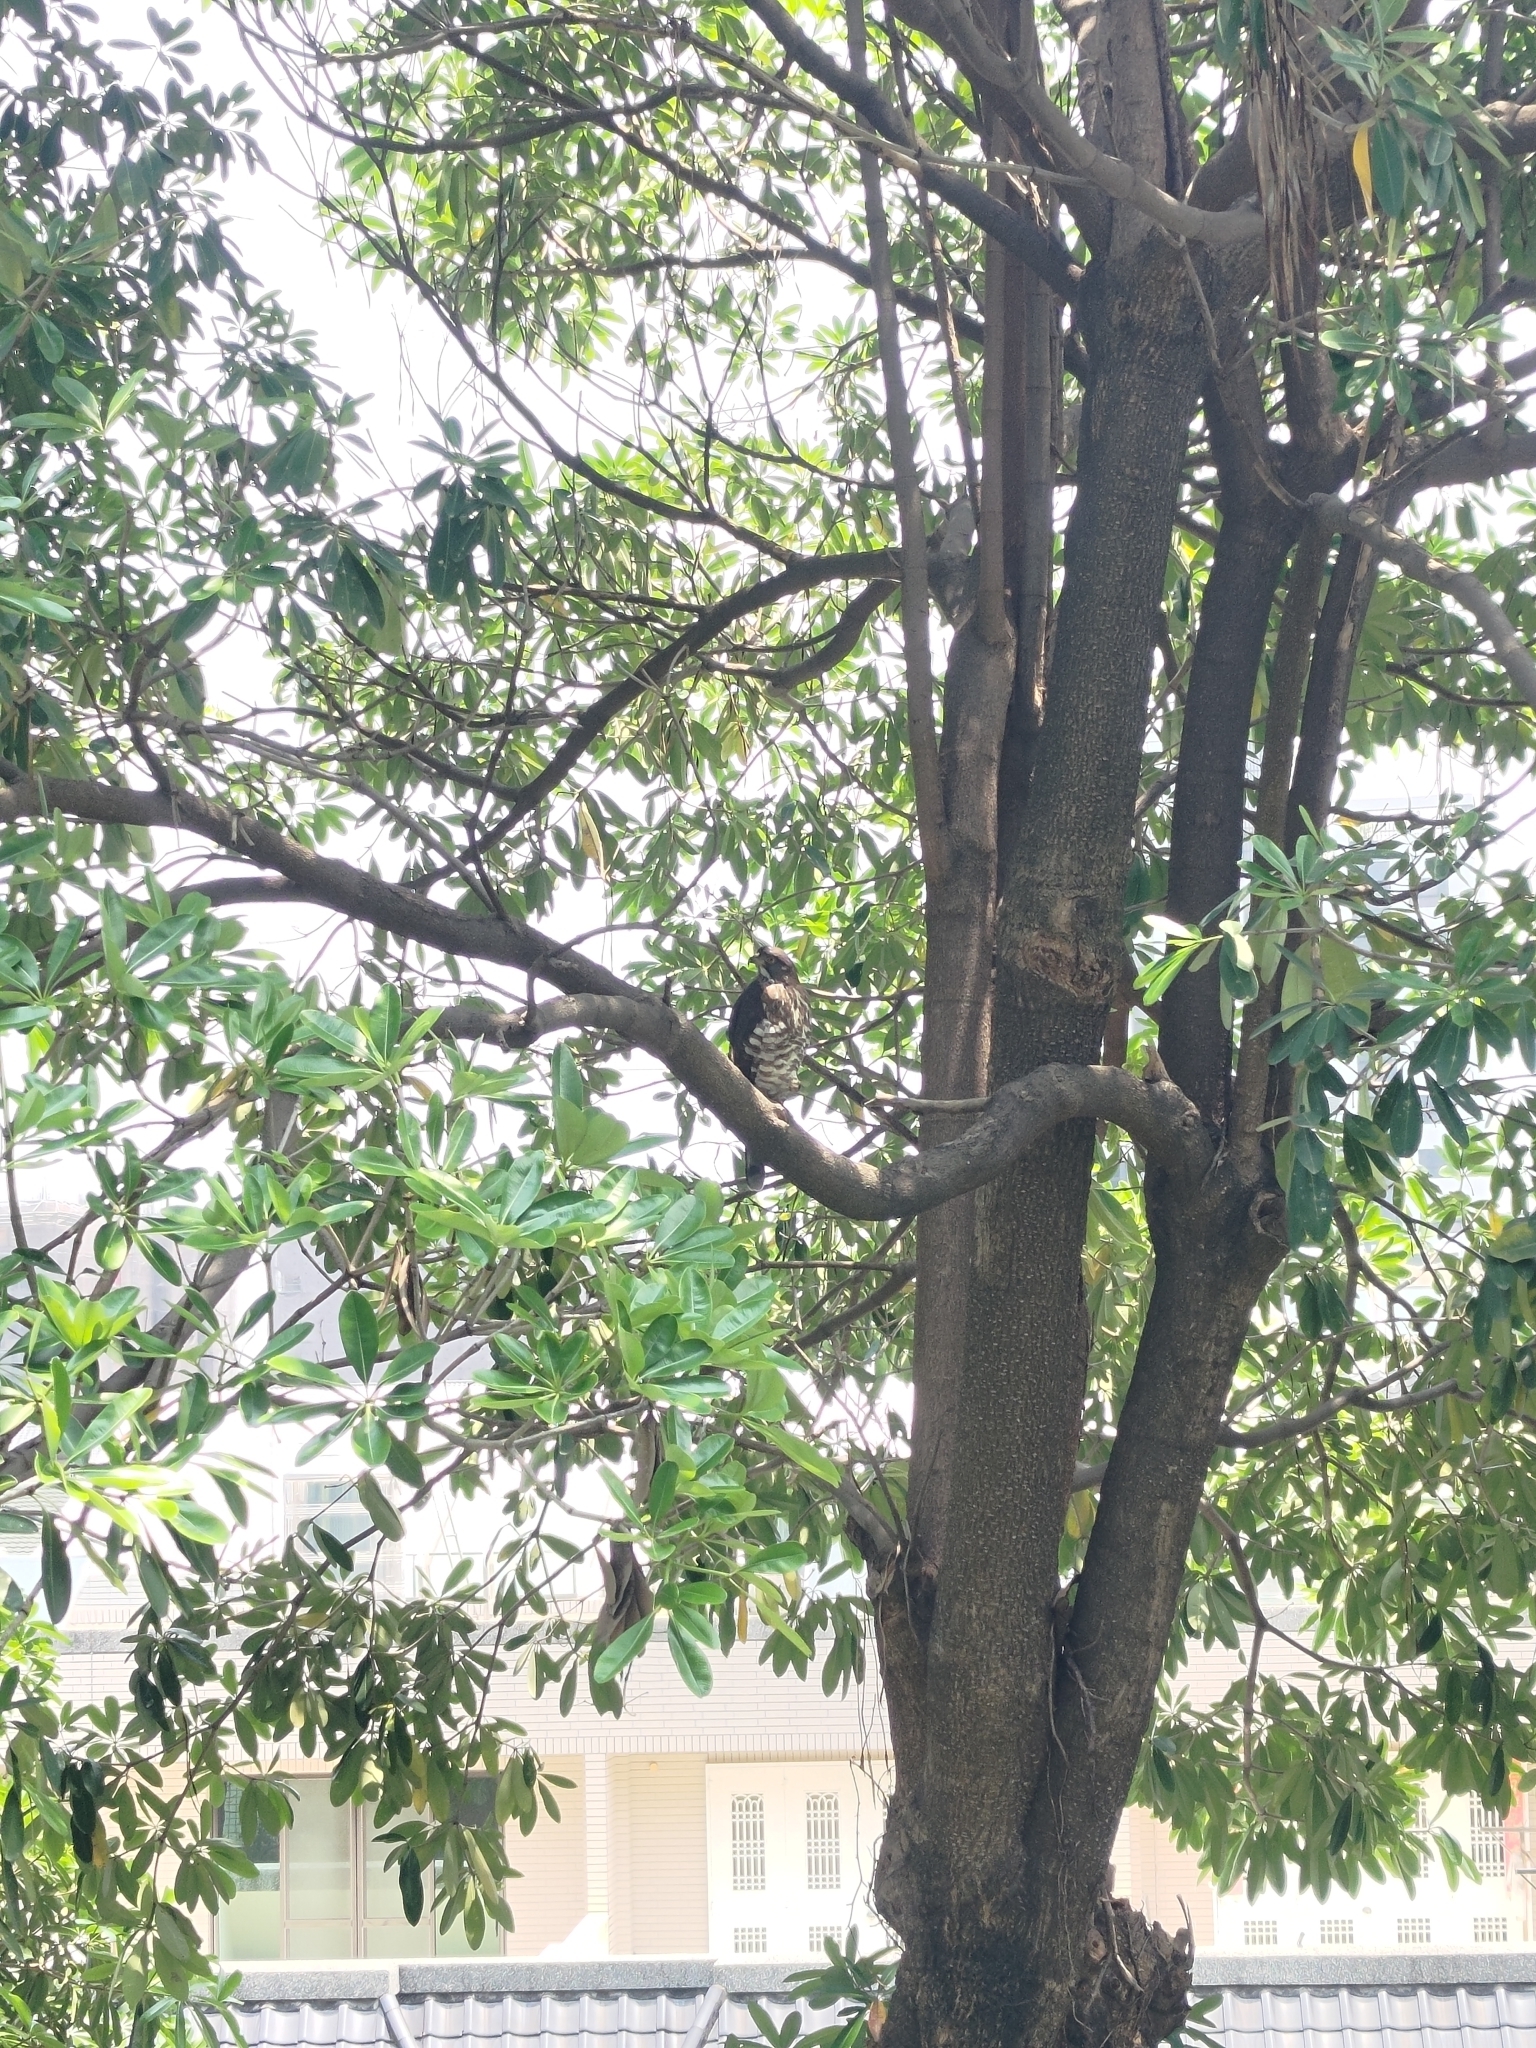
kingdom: Animalia
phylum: Chordata
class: Aves
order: Accipitriformes
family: Accipitridae
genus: Accipiter
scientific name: Accipiter trivirgatus
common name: Crested goshawk
